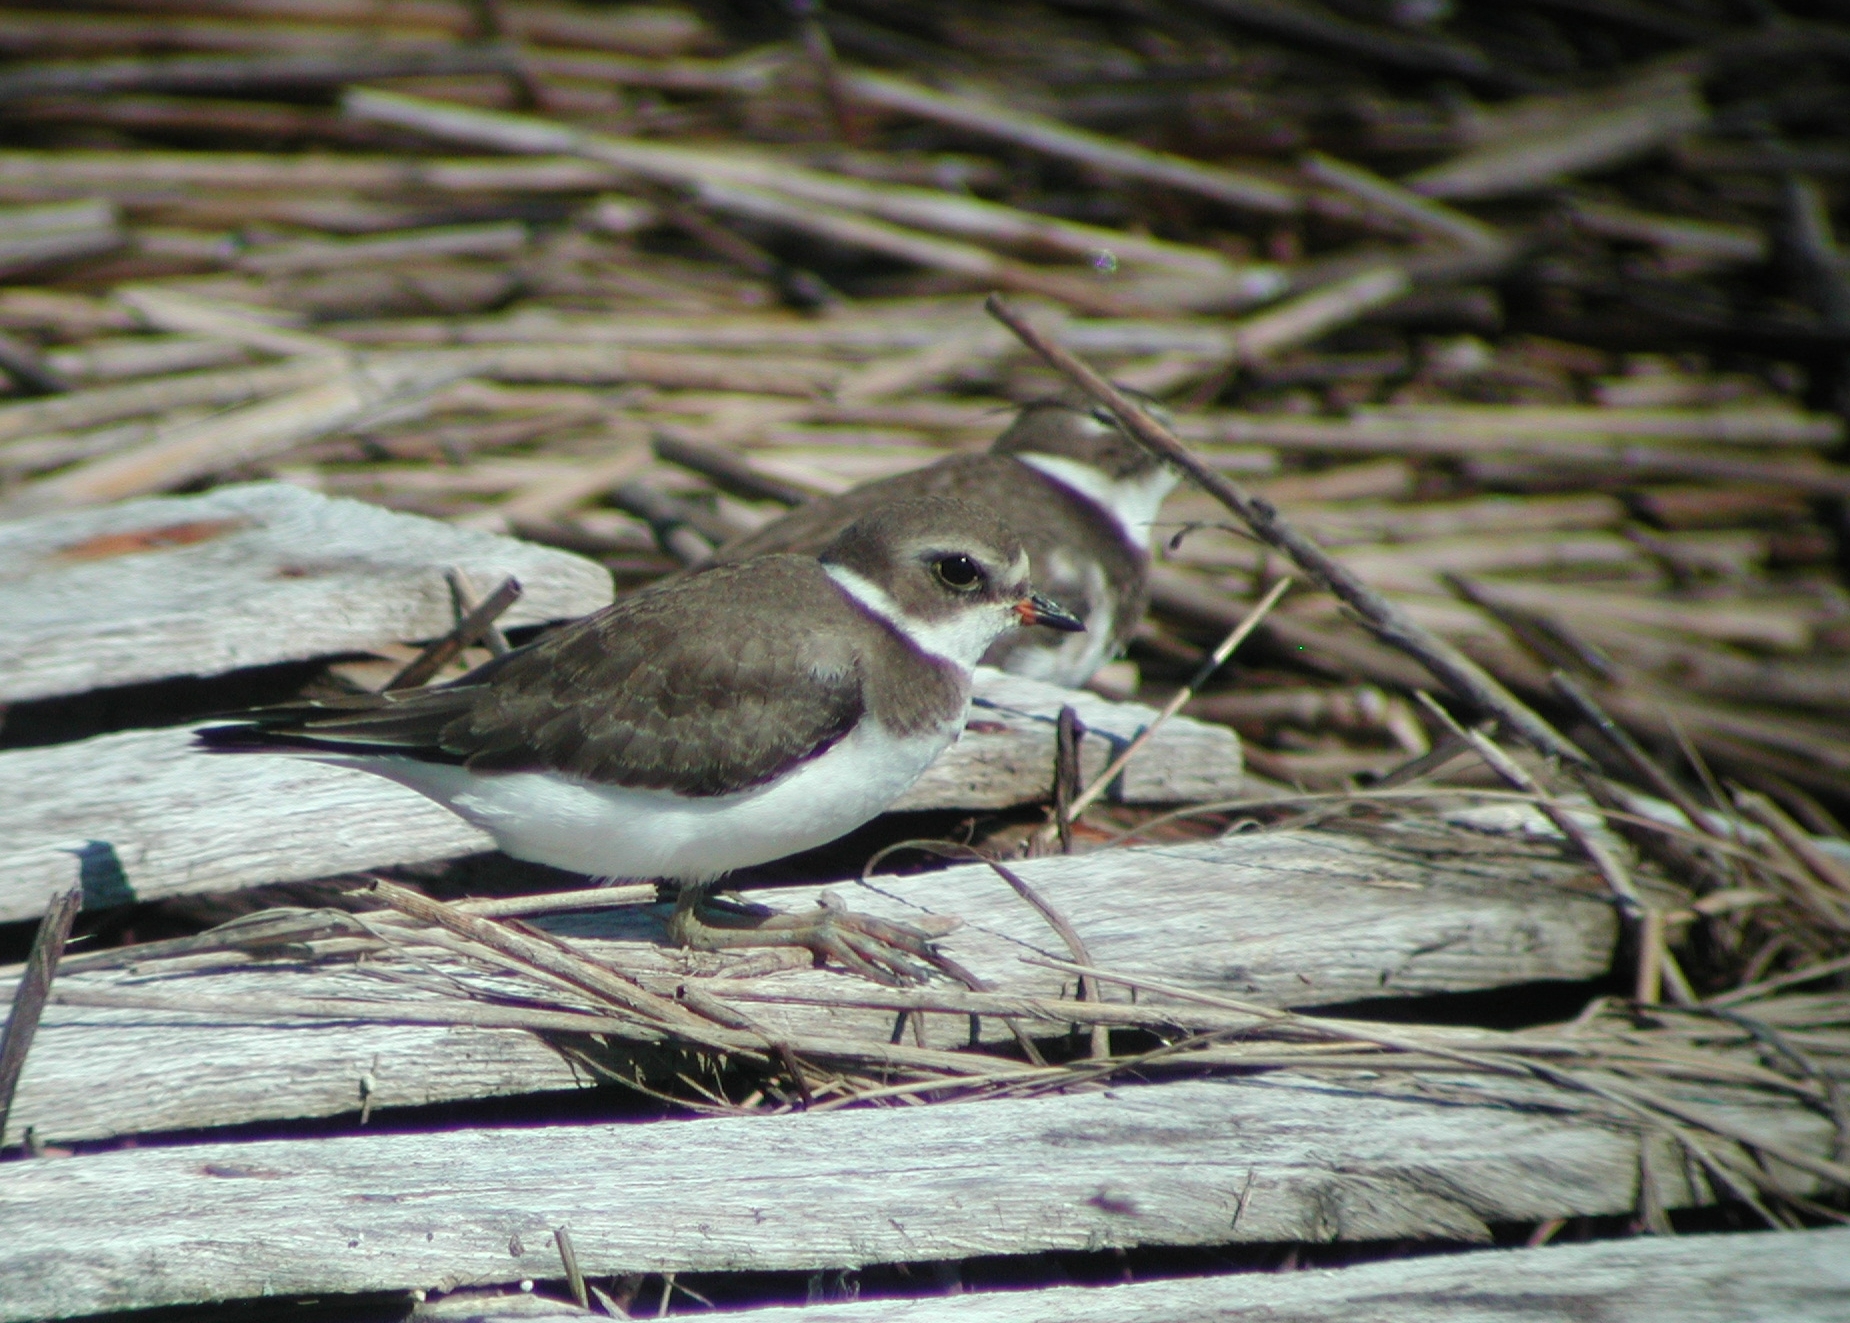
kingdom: Animalia
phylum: Chordata
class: Aves
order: Charadriiformes
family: Charadriidae
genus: Charadrius
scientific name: Charadrius semipalmatus
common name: Semipalmated plover
